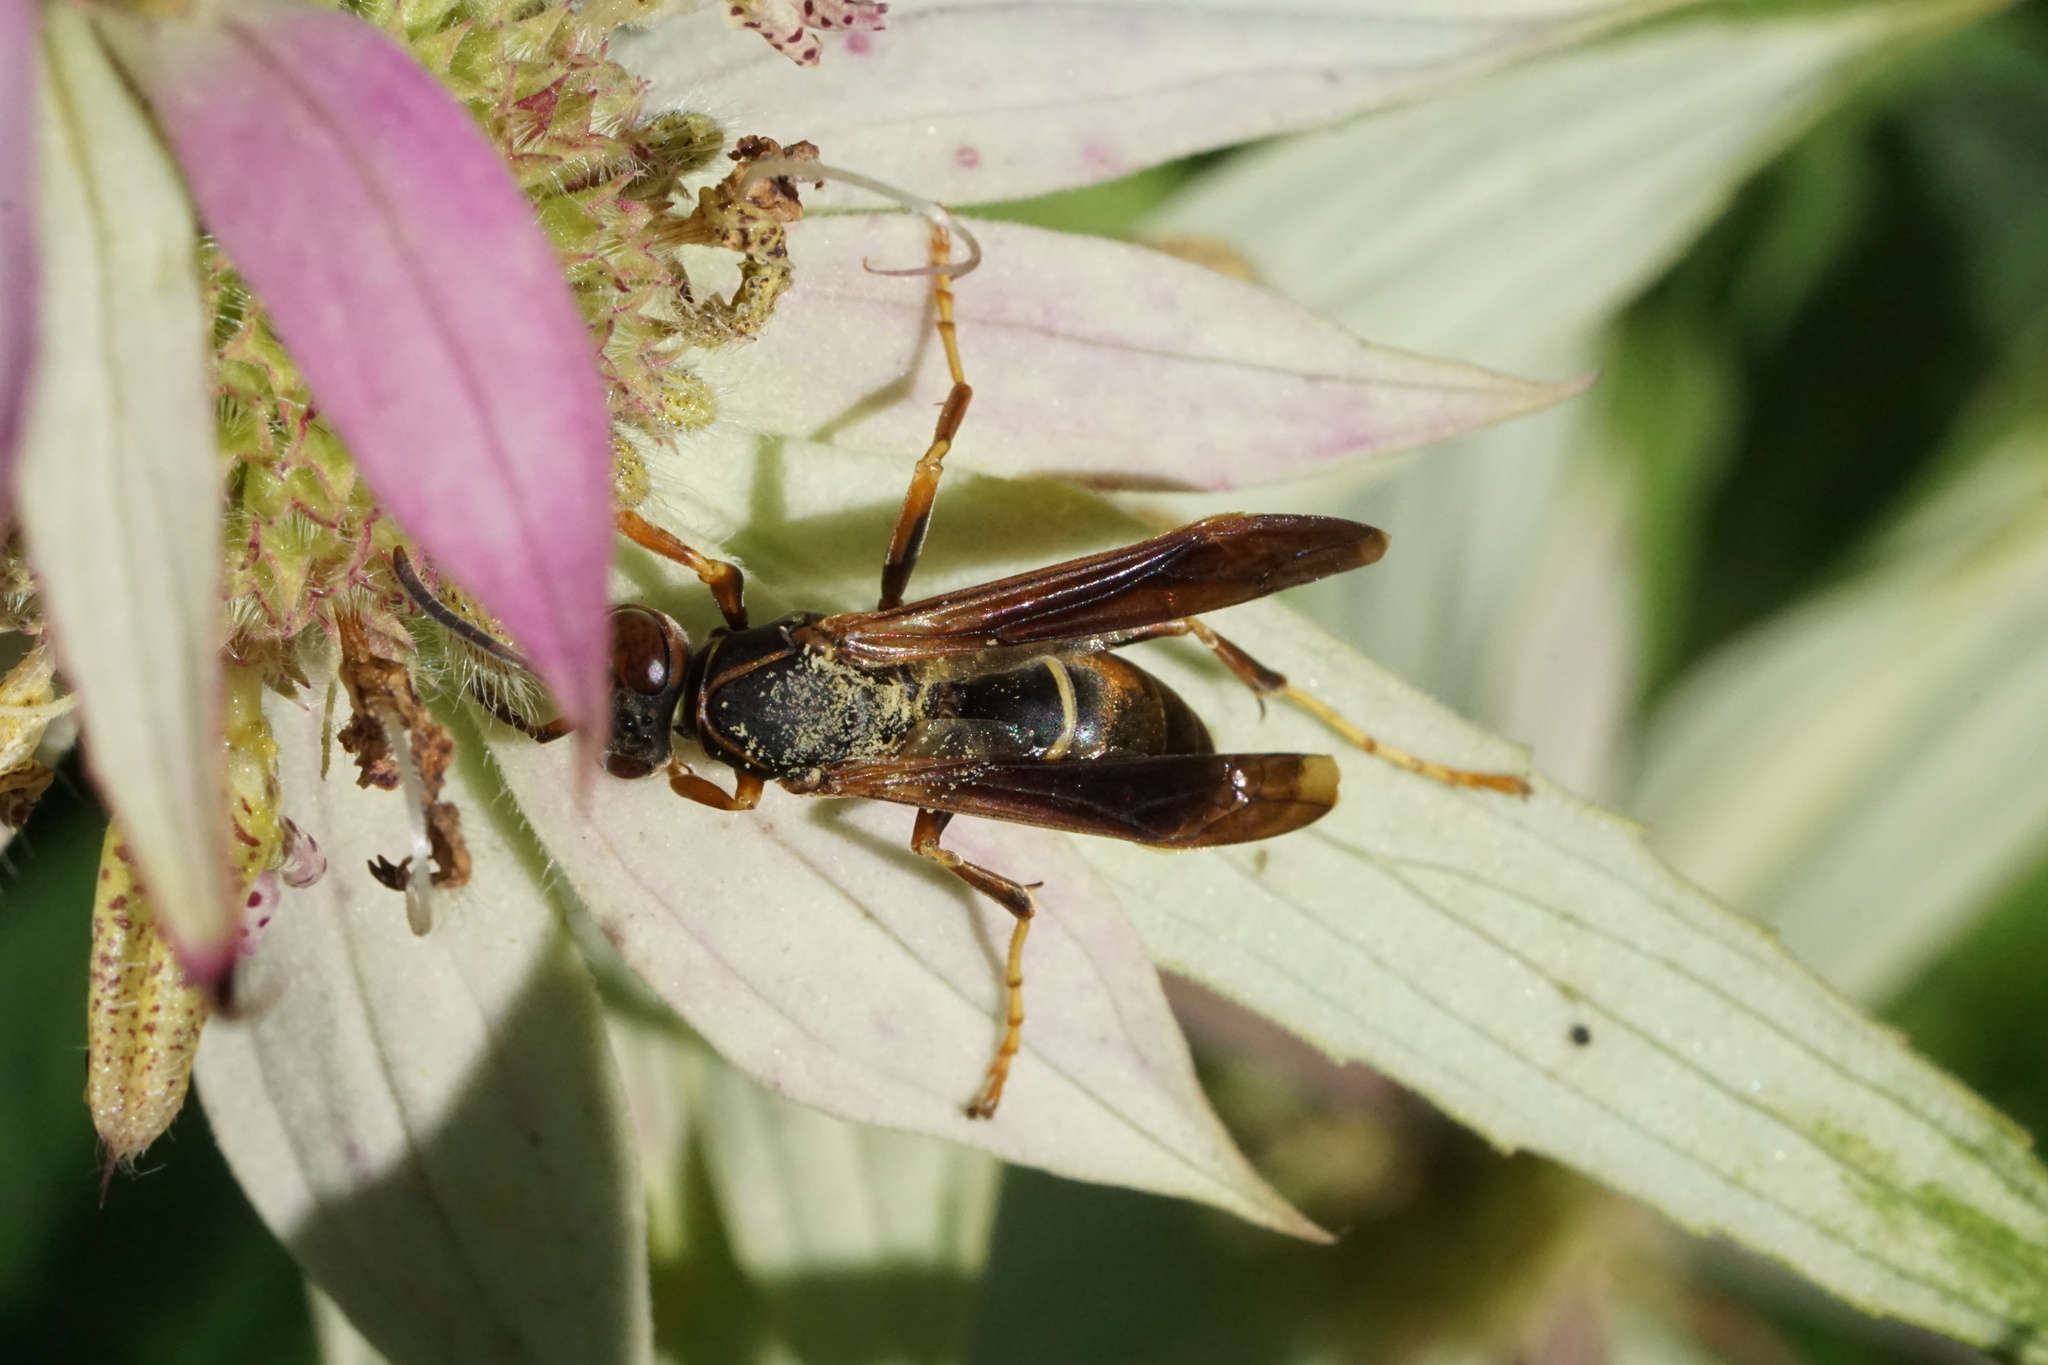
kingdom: Animalia
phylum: Arthropoda
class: Insecta
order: Hymenoptera
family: Eumenidae
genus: Polistes
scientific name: Polistes fuscatus
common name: Dark paper wasp
